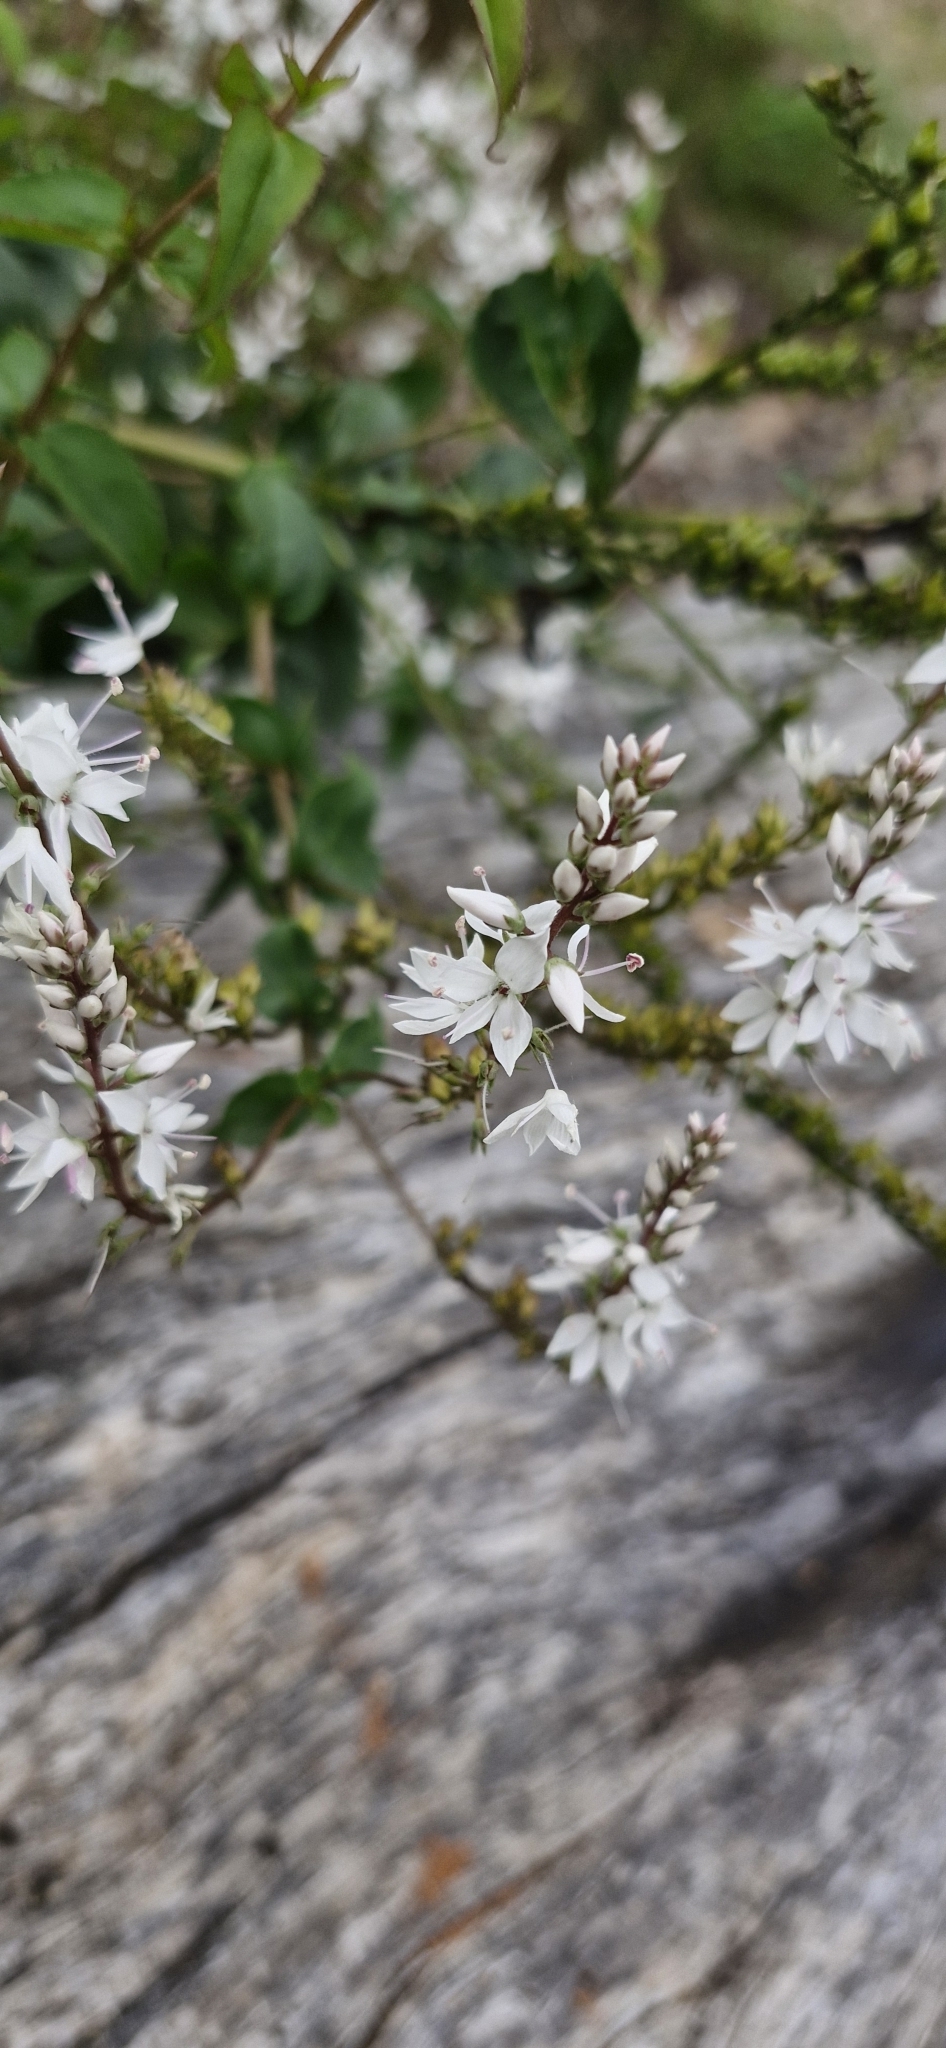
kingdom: Plantae
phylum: Tracheophyta
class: Magnoliopsida
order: Lamiales
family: Plantaginaceae
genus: Veronica
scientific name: Veronica derwentiana
